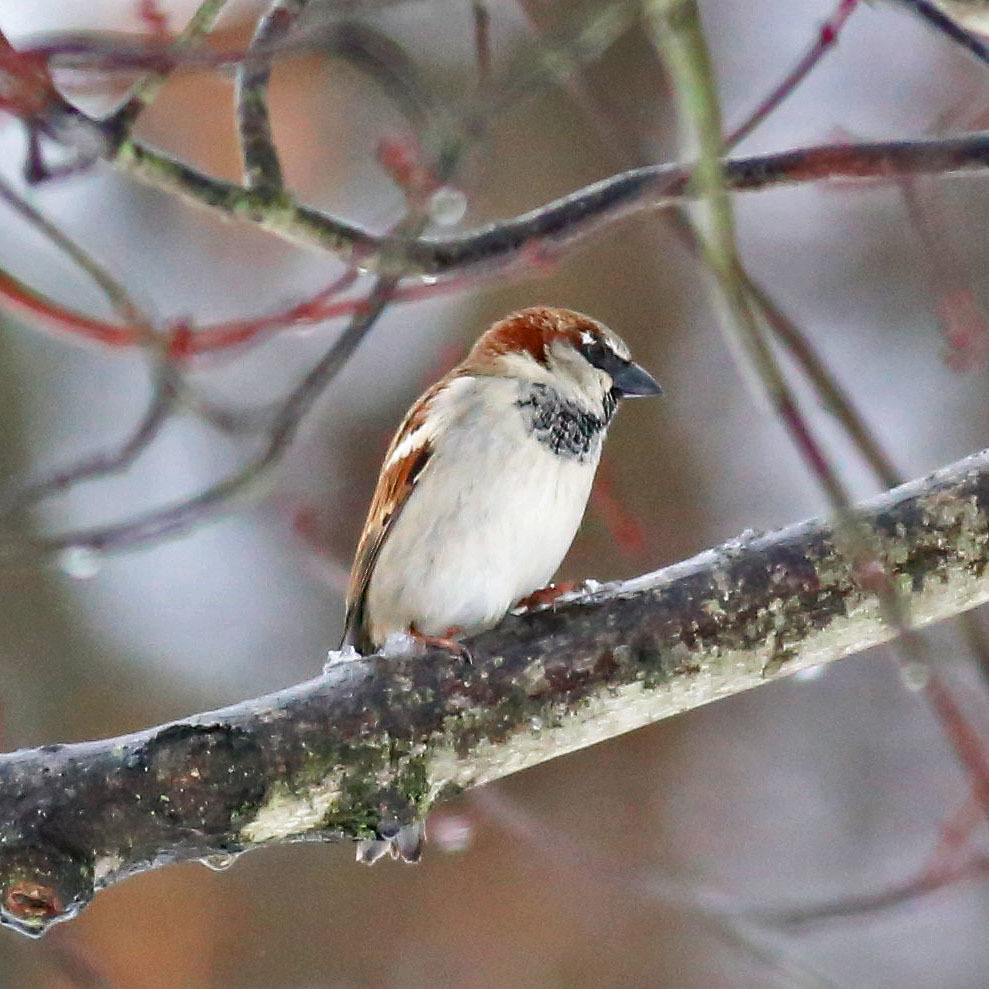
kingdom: Animalia
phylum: Chordata
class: Aves
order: Passeriformes
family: Passeridae
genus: Passer
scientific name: Passer domesticus
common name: House sparrow
